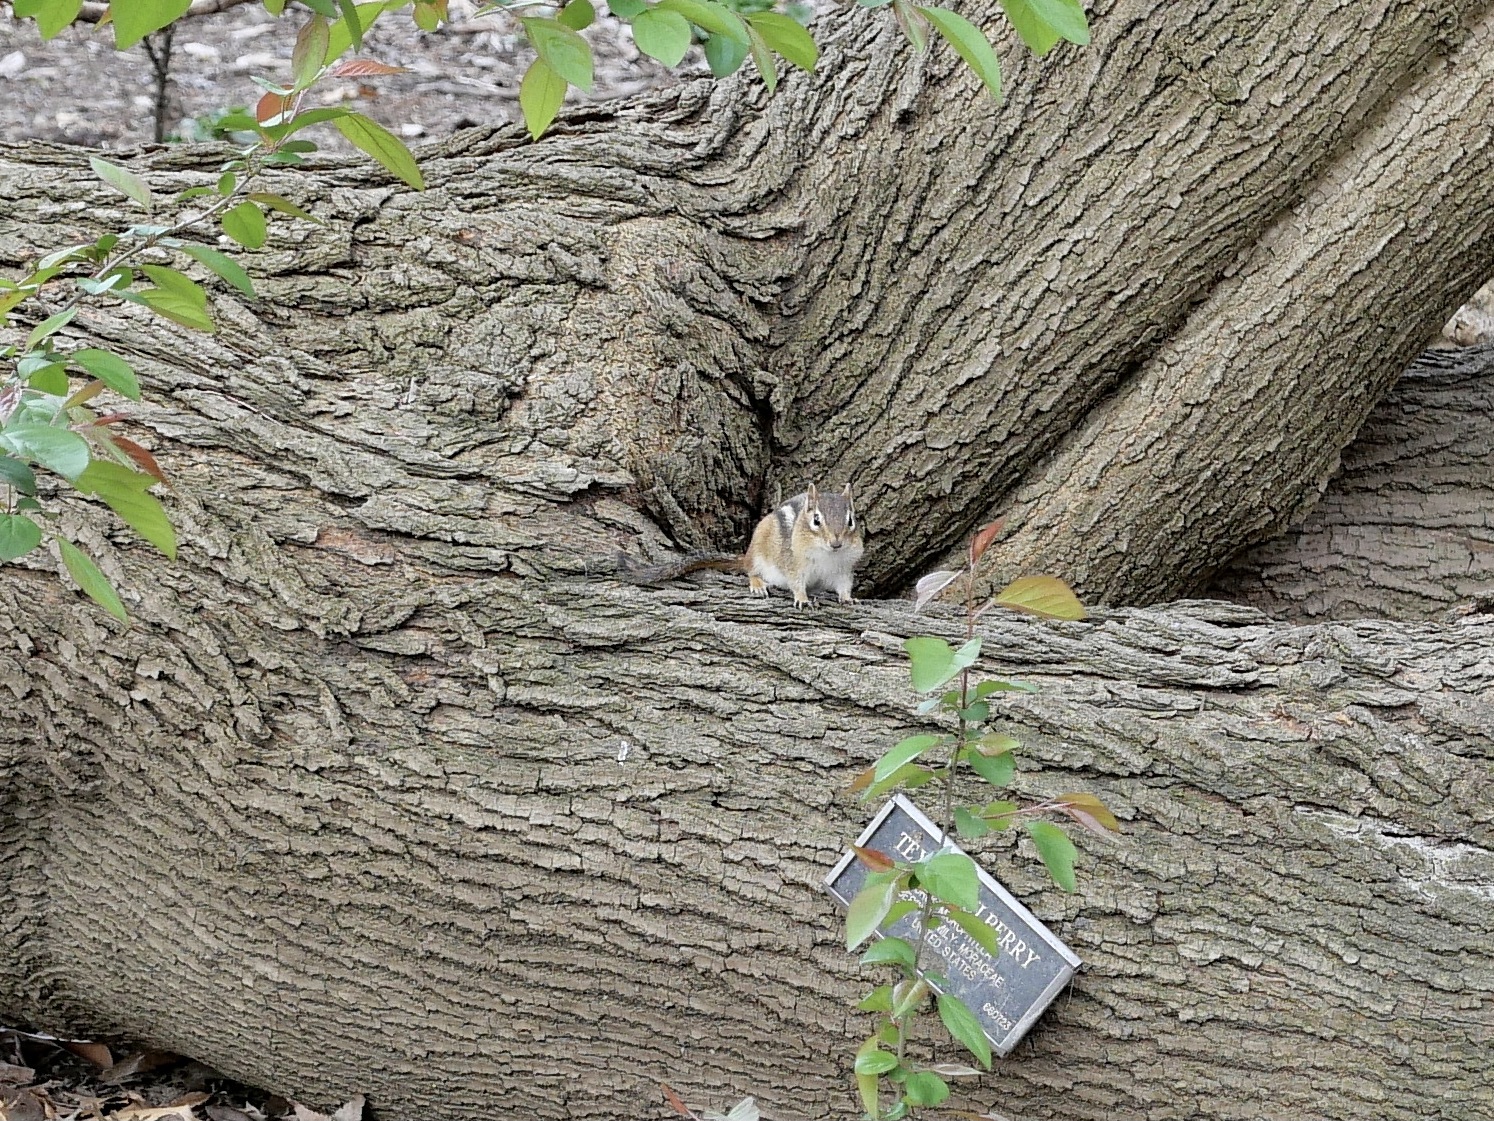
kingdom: Animalia
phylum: Chordata
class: Mammalia
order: Rodentia
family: Sciuridae
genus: Tamias
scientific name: Tamias striatus
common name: Eastern chipmunk
